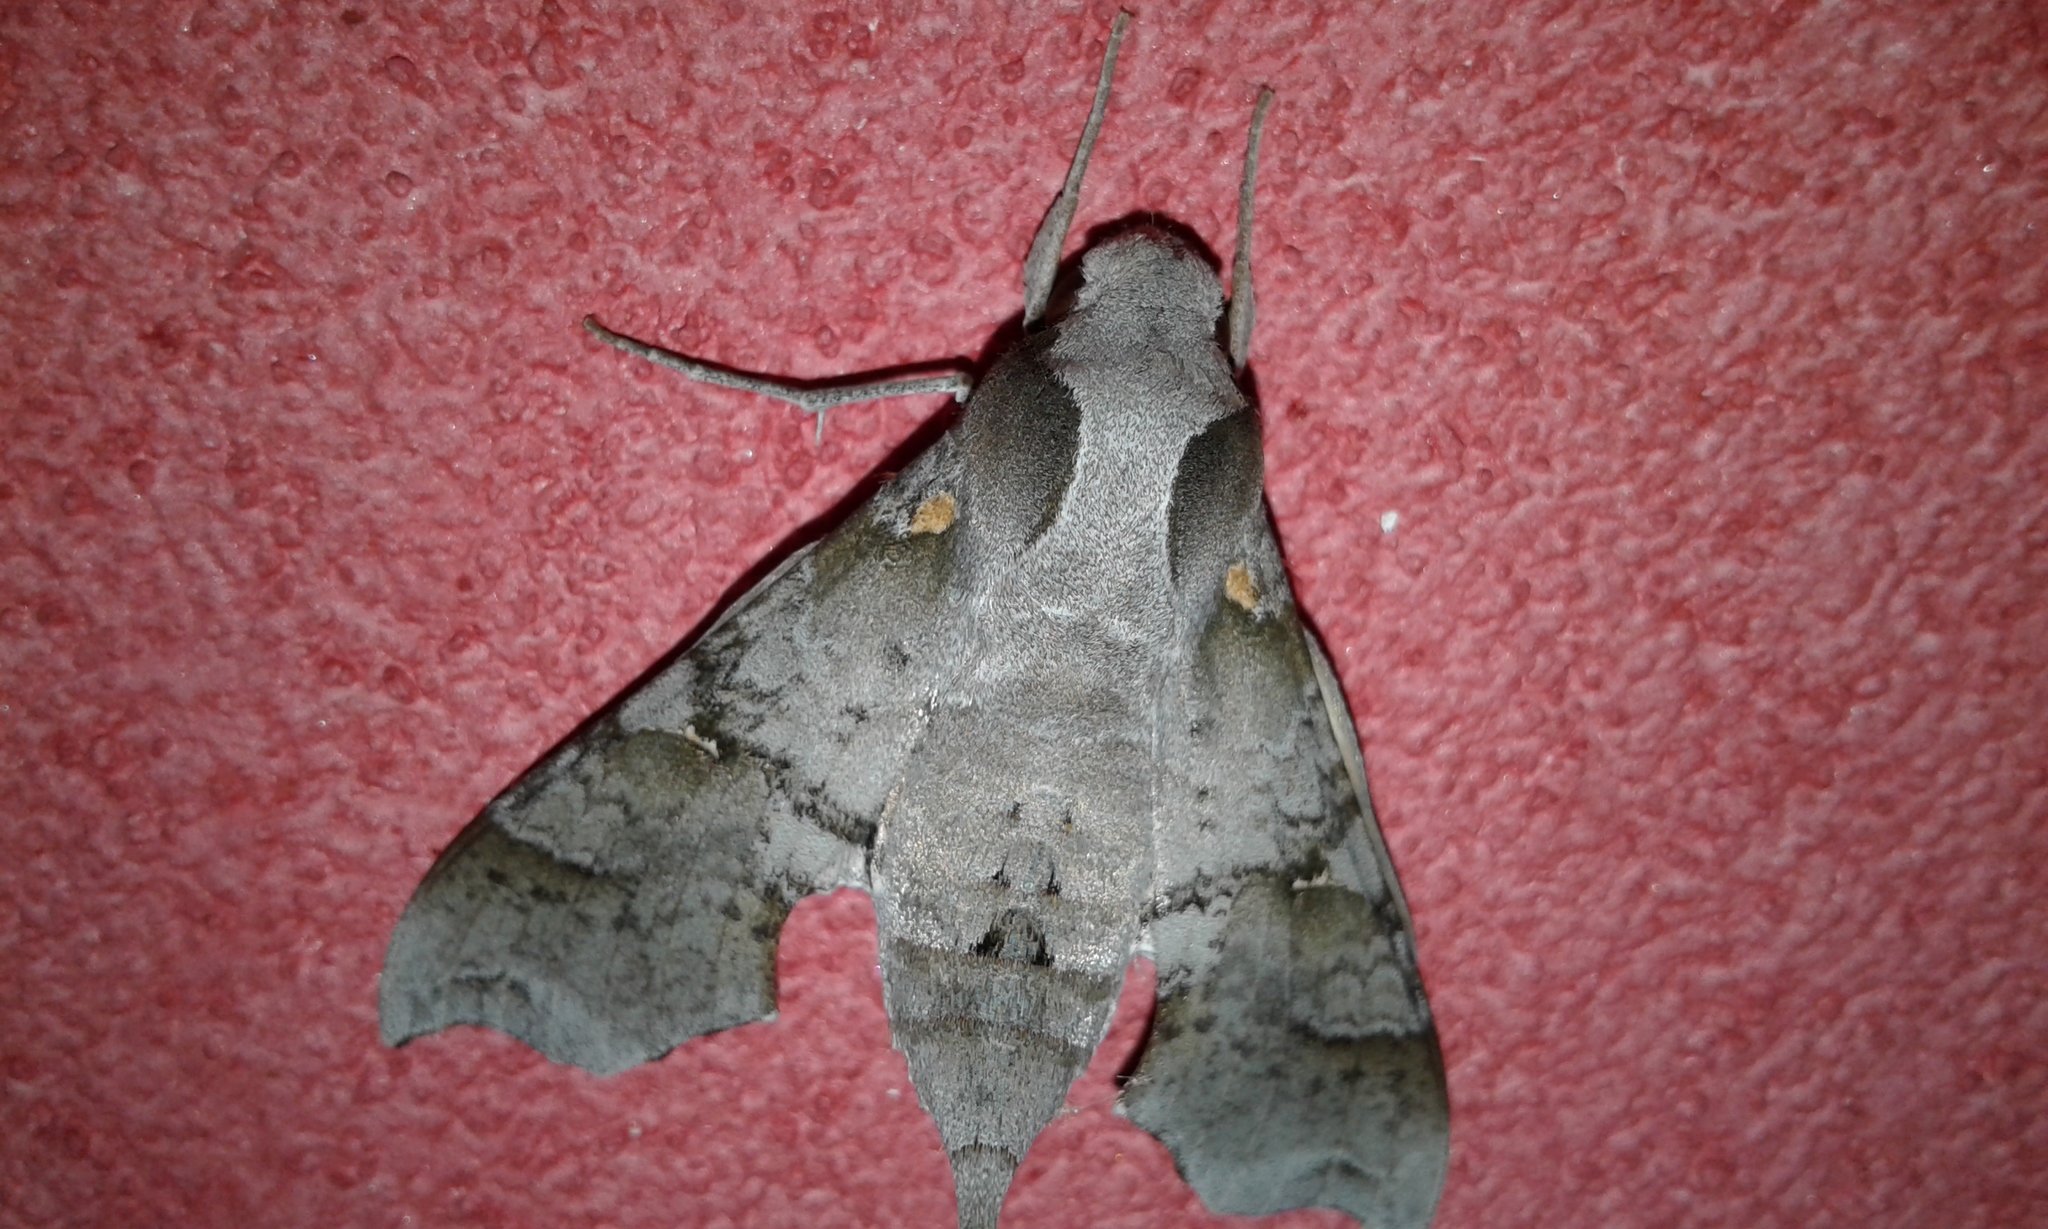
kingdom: Animalia
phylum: Arthropoda
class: Insecta
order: Lepidoptera
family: Sphingidae
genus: Callionima
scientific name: Callionima grisescens
